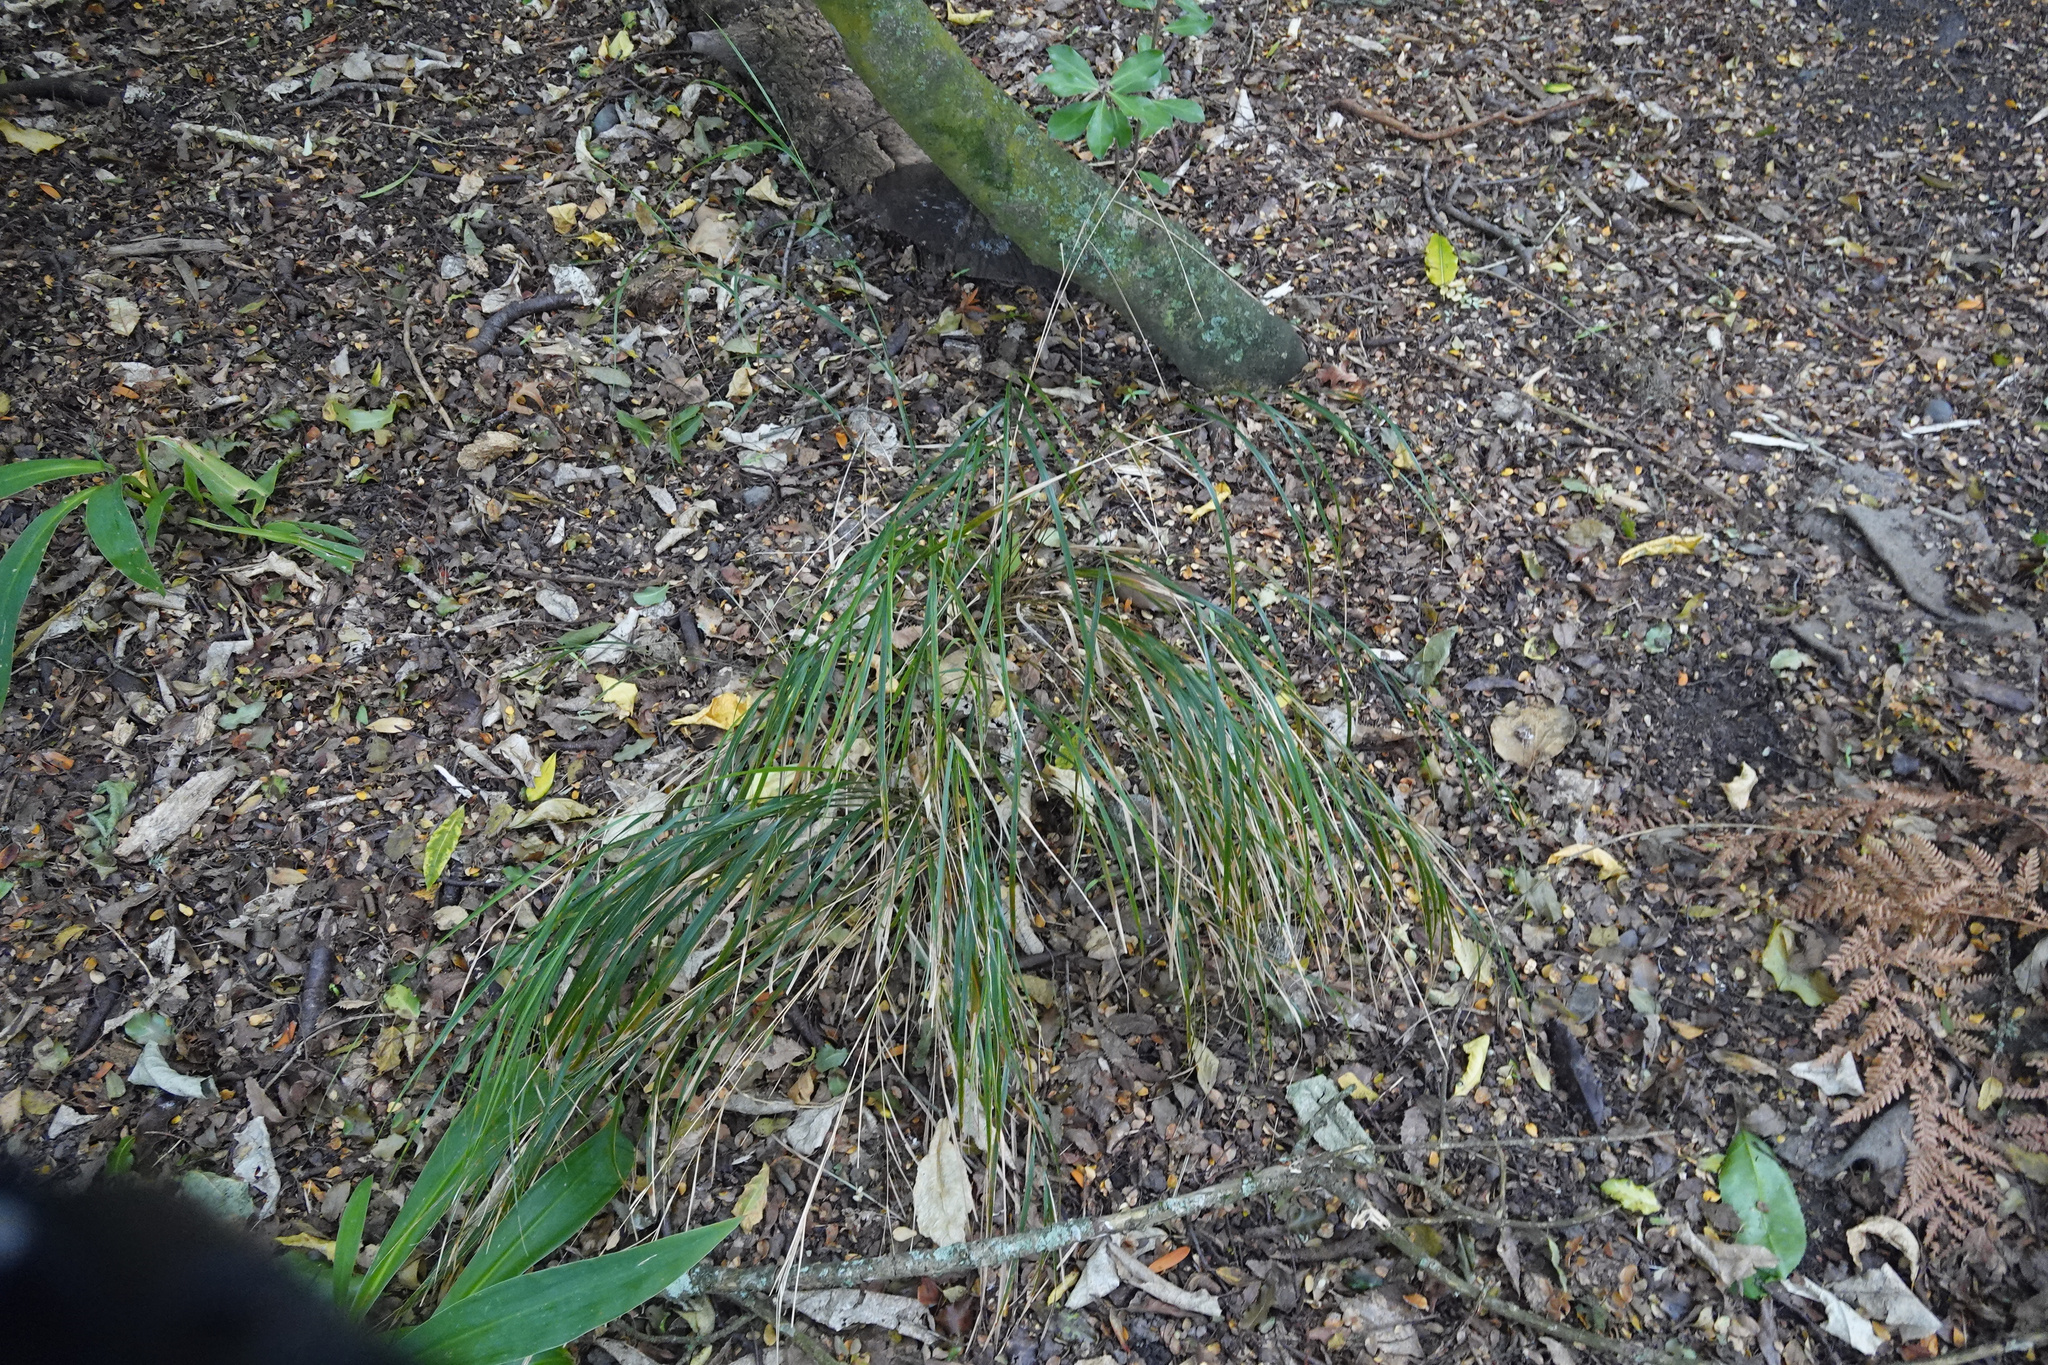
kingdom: Plantae
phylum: Tracheophyta
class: Liliopsida
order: Poales
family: Poaceae
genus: Anemanthele
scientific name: Anemanthele lessoniana
